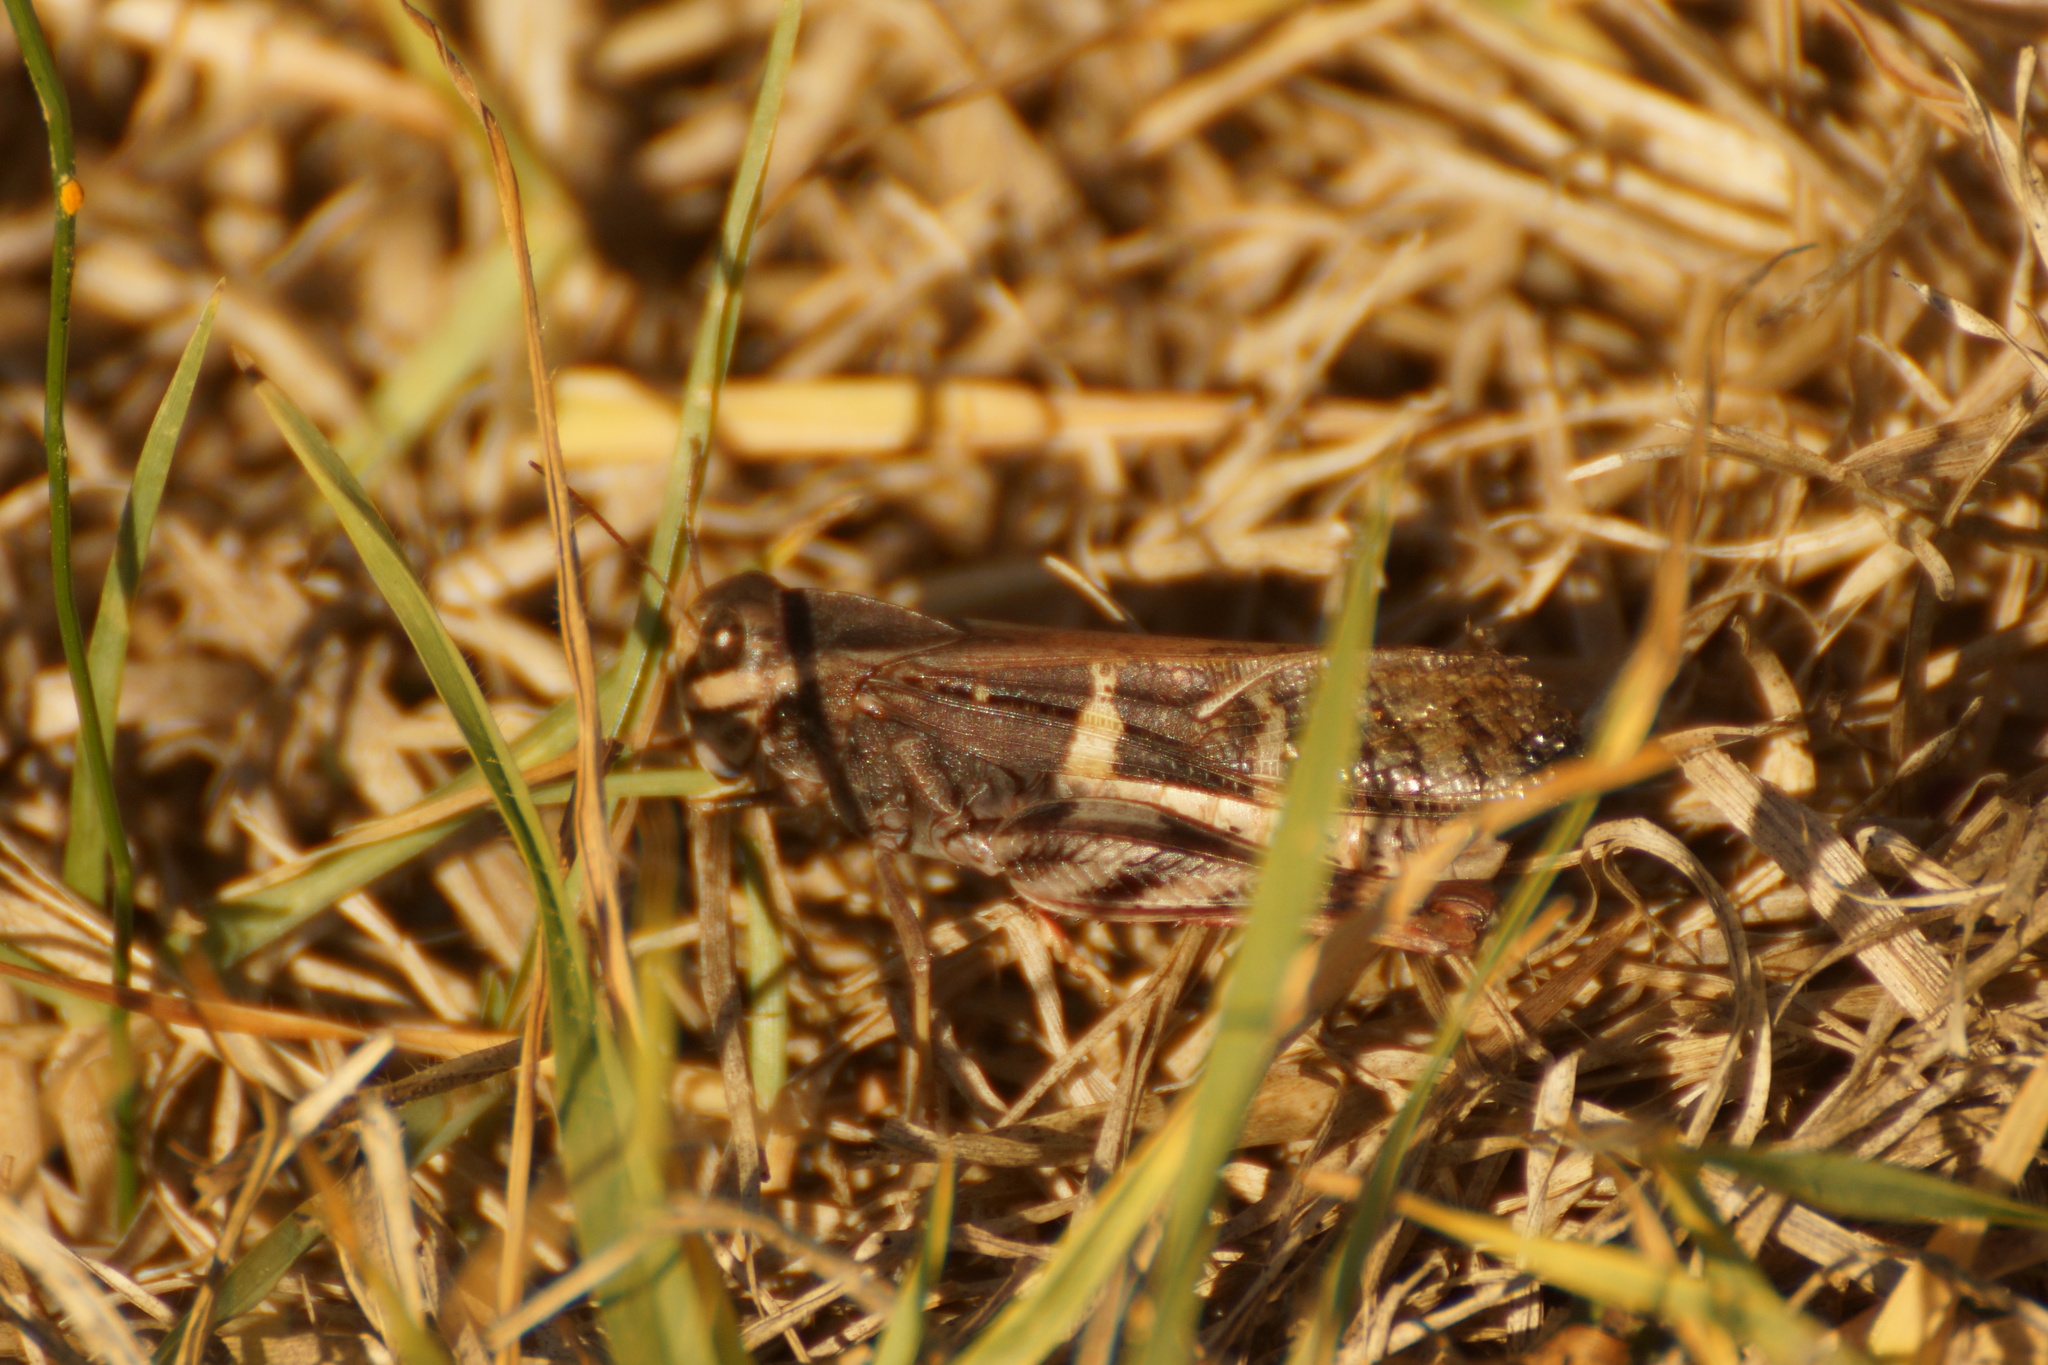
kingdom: Animalia
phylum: Arthropoda
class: Insecta
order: Orthoptera
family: Acrididae
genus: Gastrimargus
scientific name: Gastrimargus musicus
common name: Yellow-winged locust
